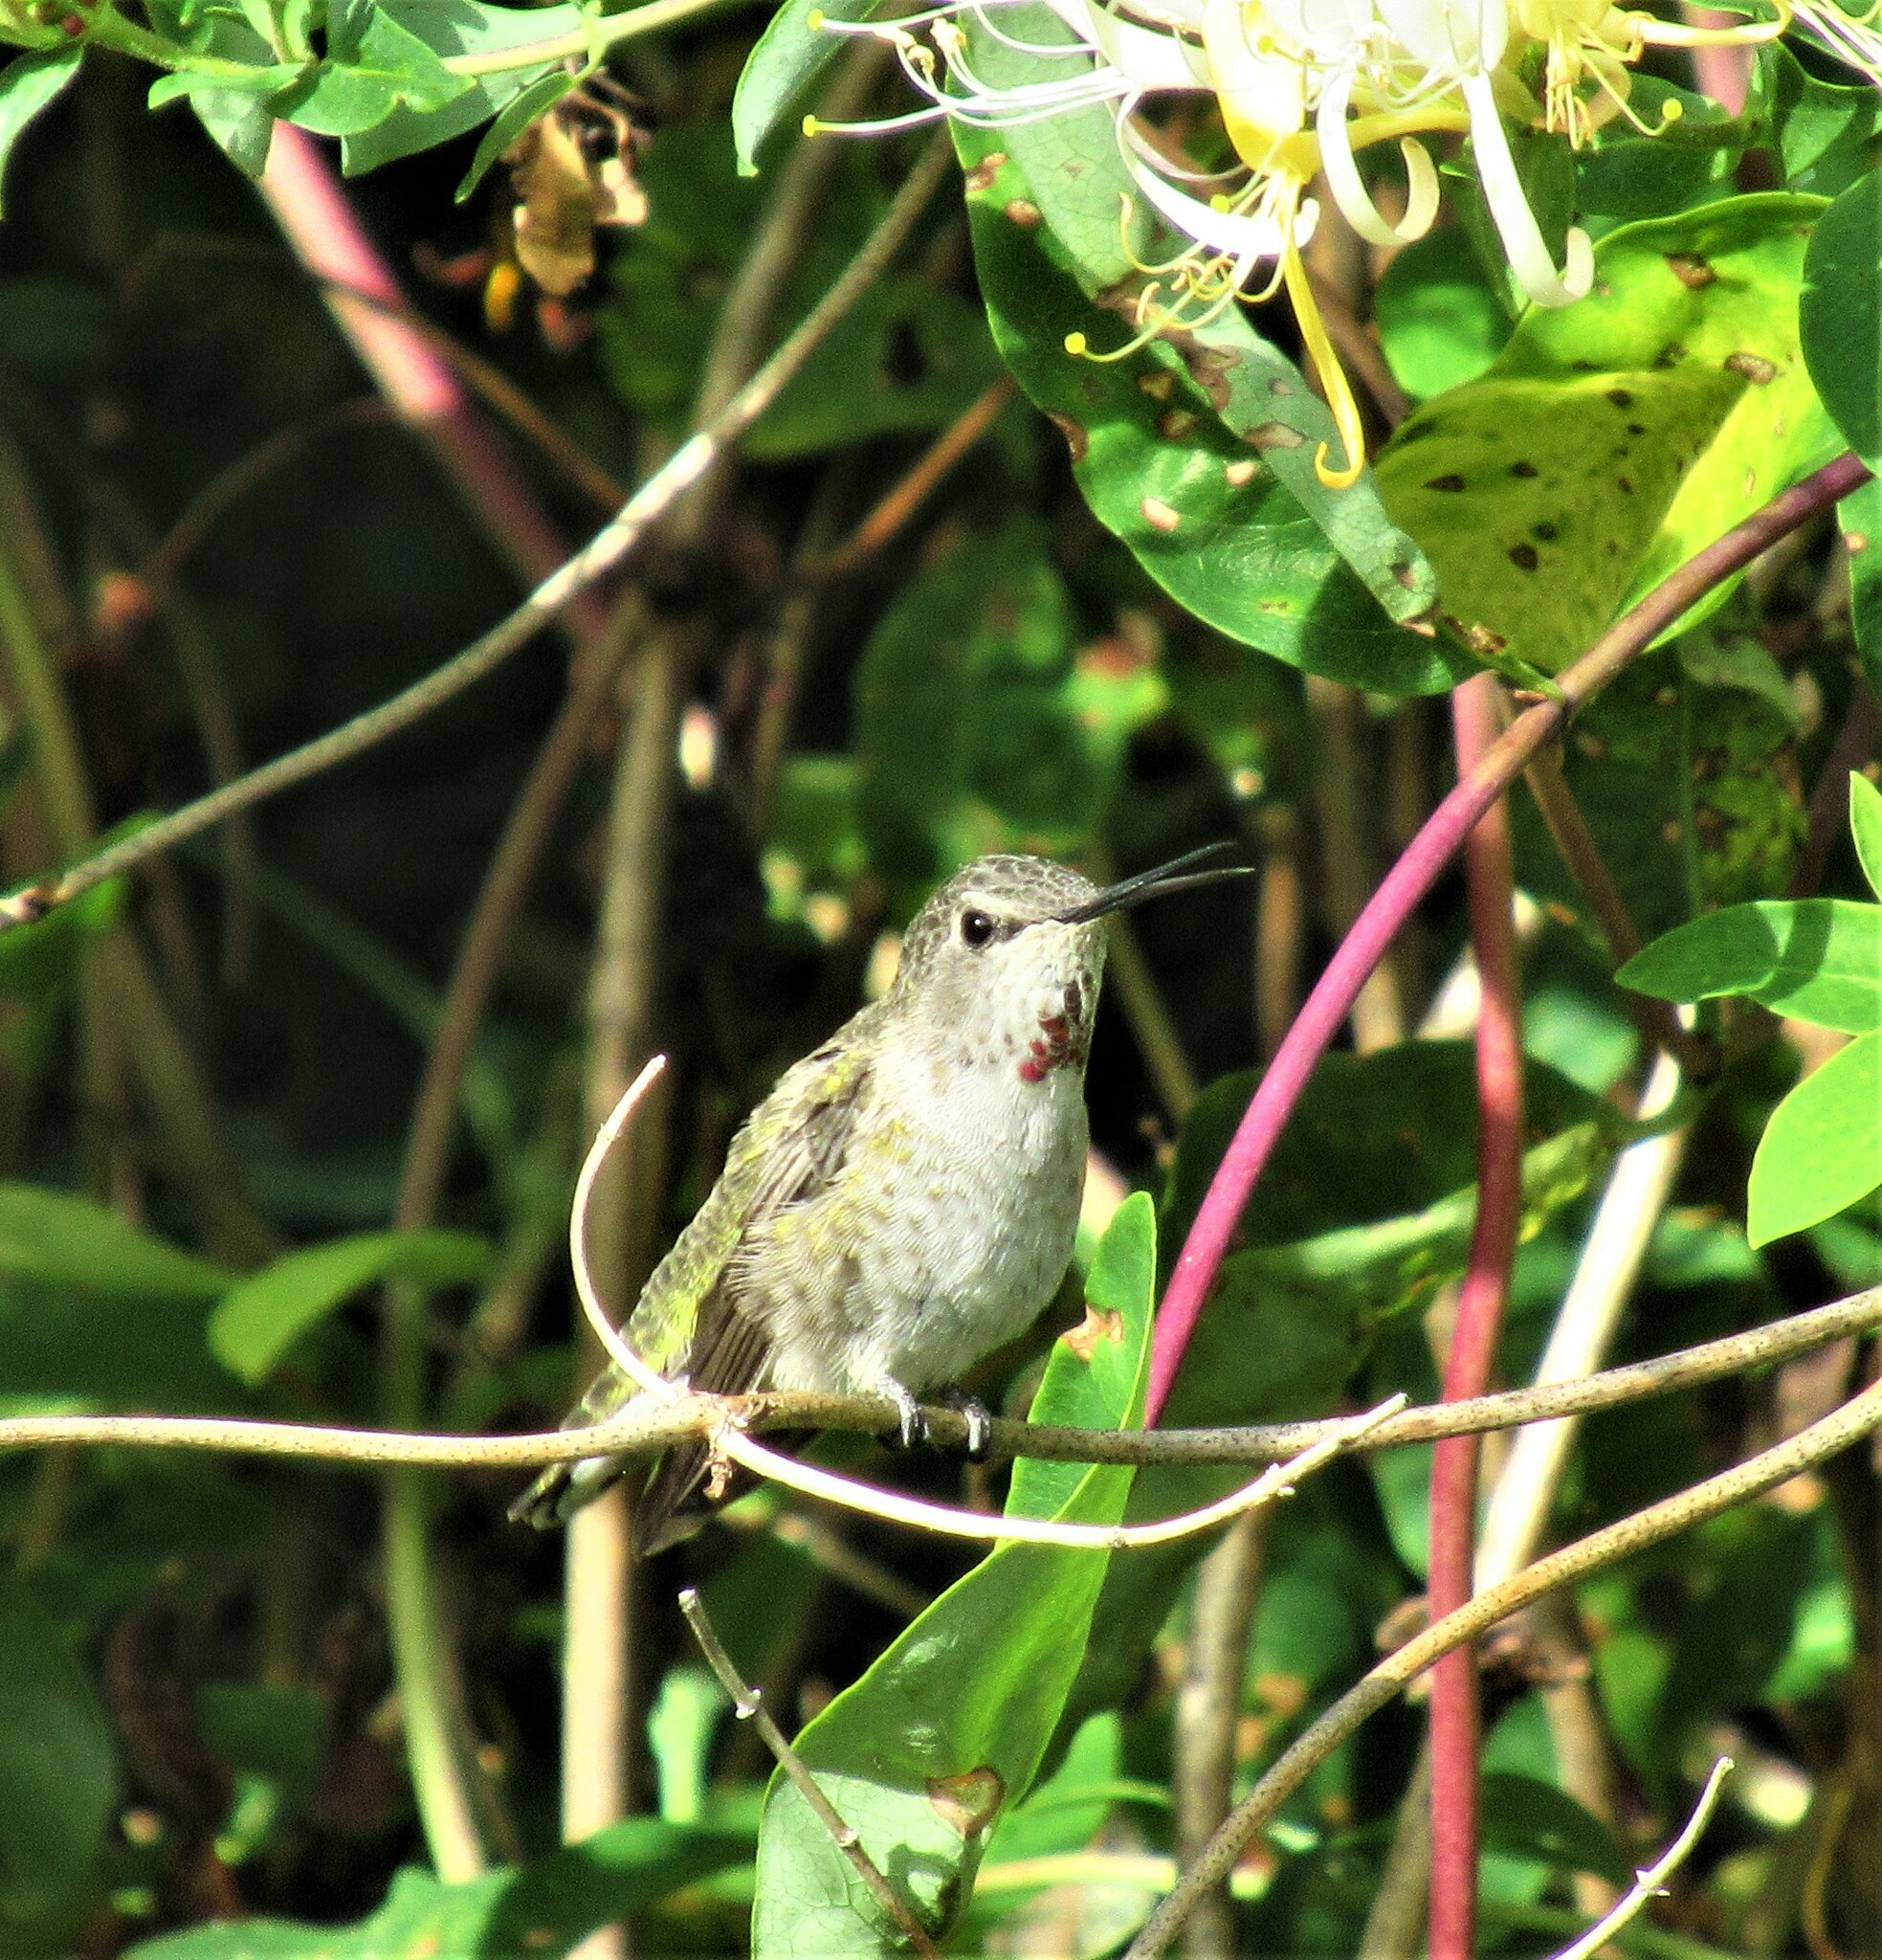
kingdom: Animalia
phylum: Chordata
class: Aves
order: Apodiformes
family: Trochilidae
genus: Calypte
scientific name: Calypte anna
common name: Anna's hummingbird
